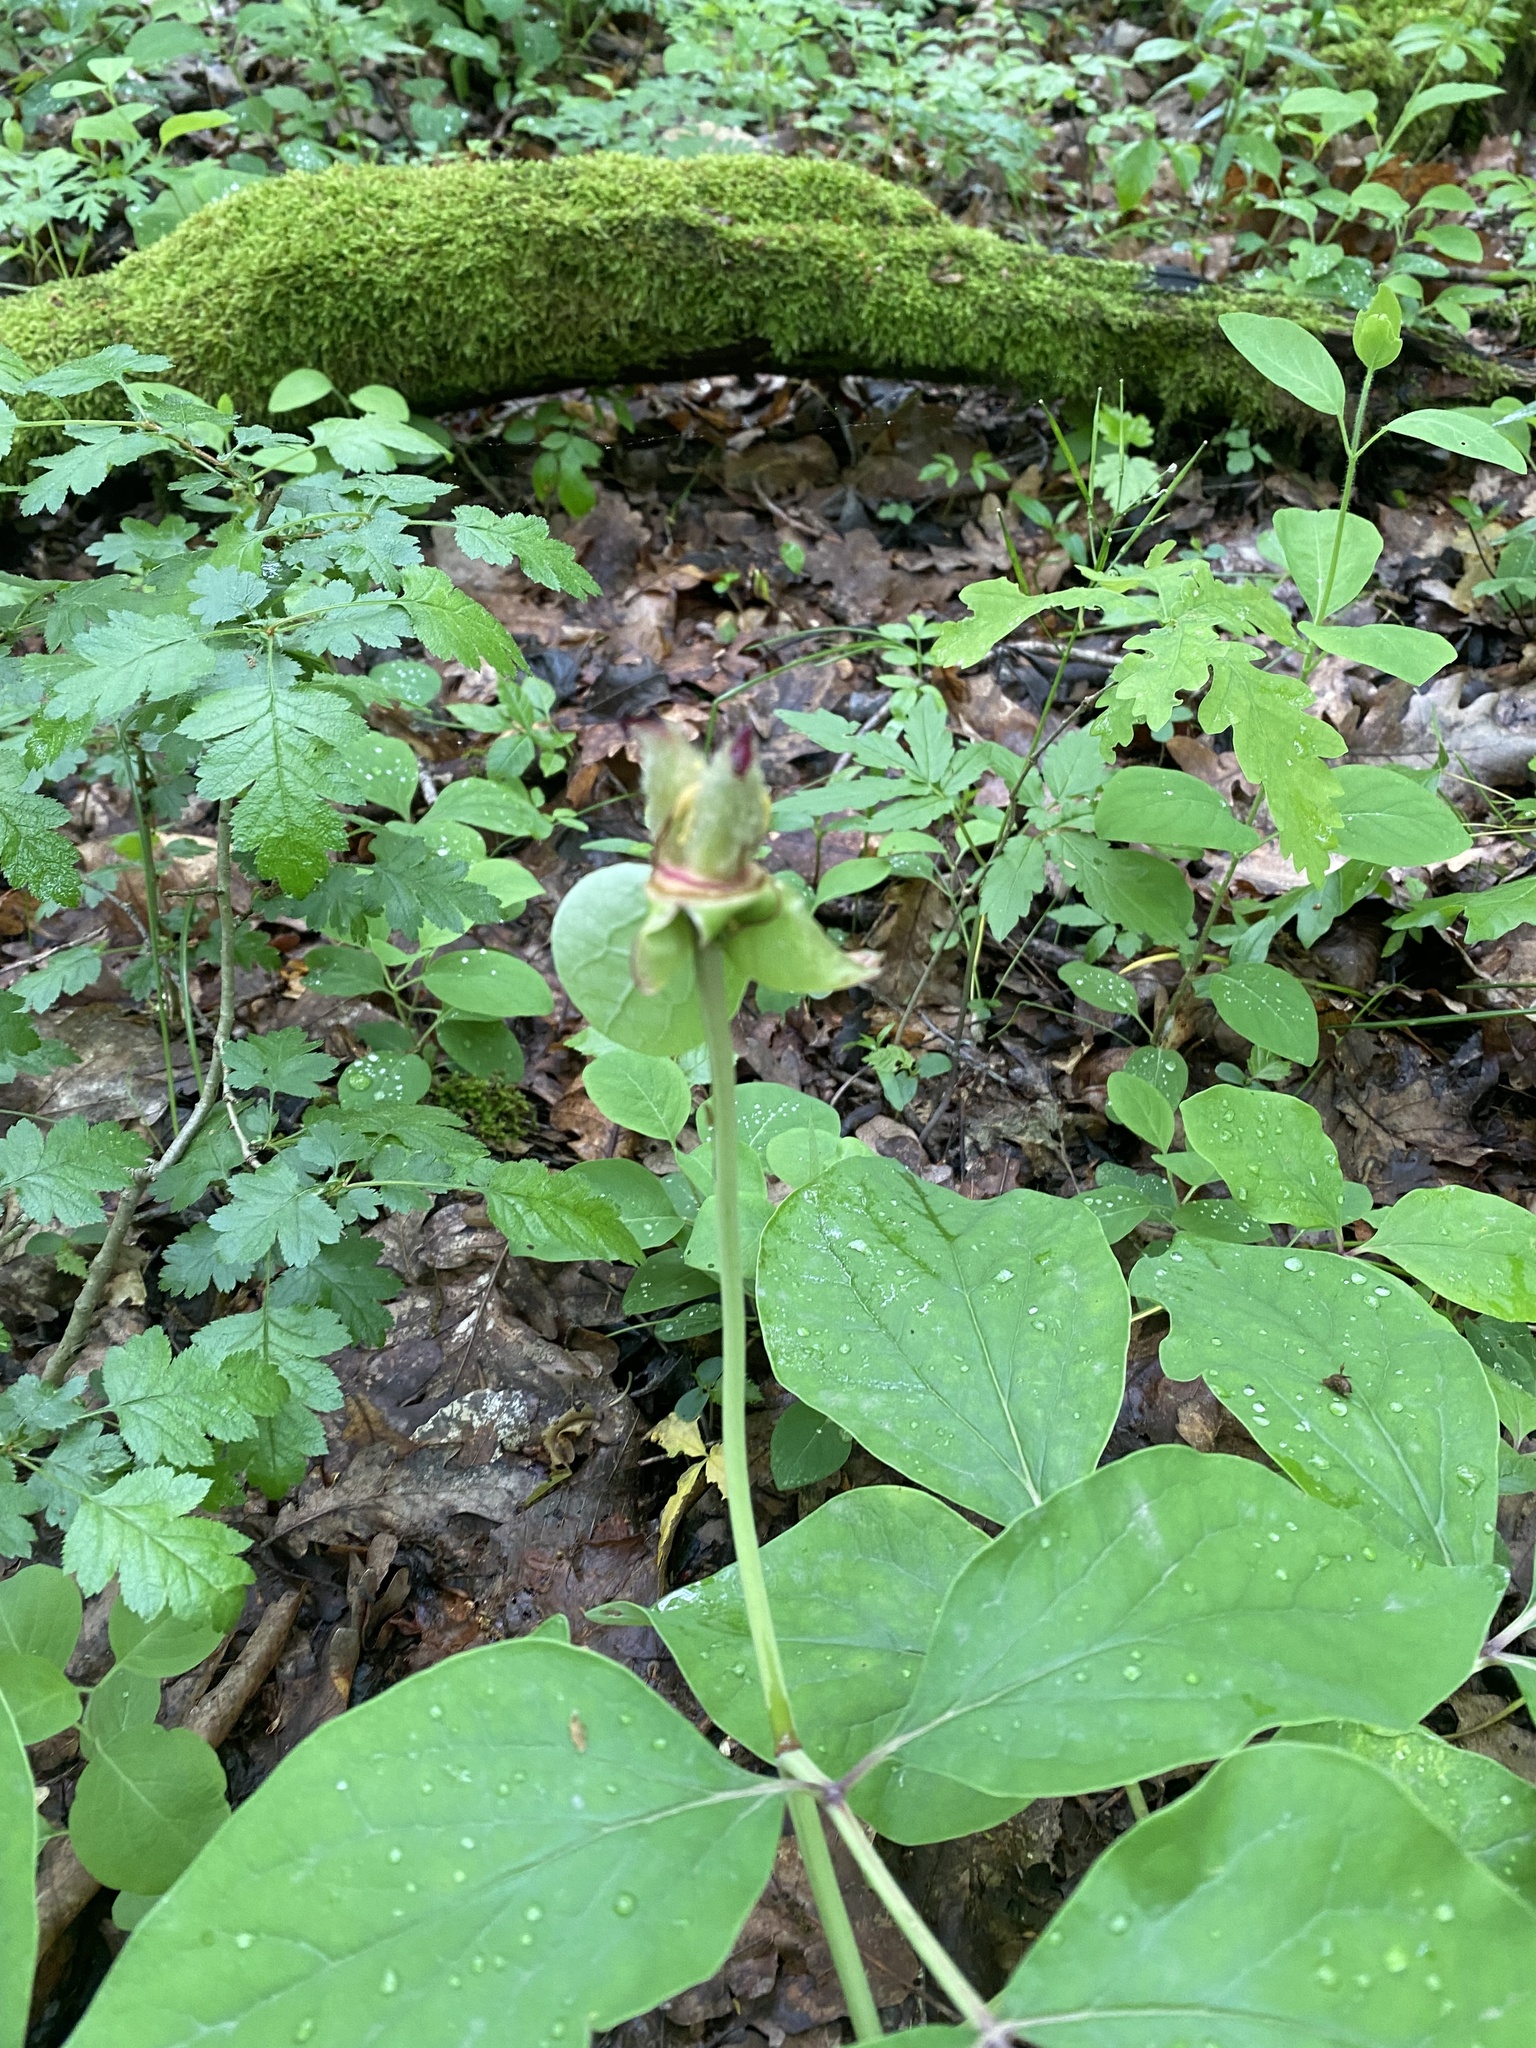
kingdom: Plantae
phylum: Tracheophyta
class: Magnoliopsida
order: Saxifragales
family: Paeoniaceae
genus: Paeonia
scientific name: Paeonia caucasica
